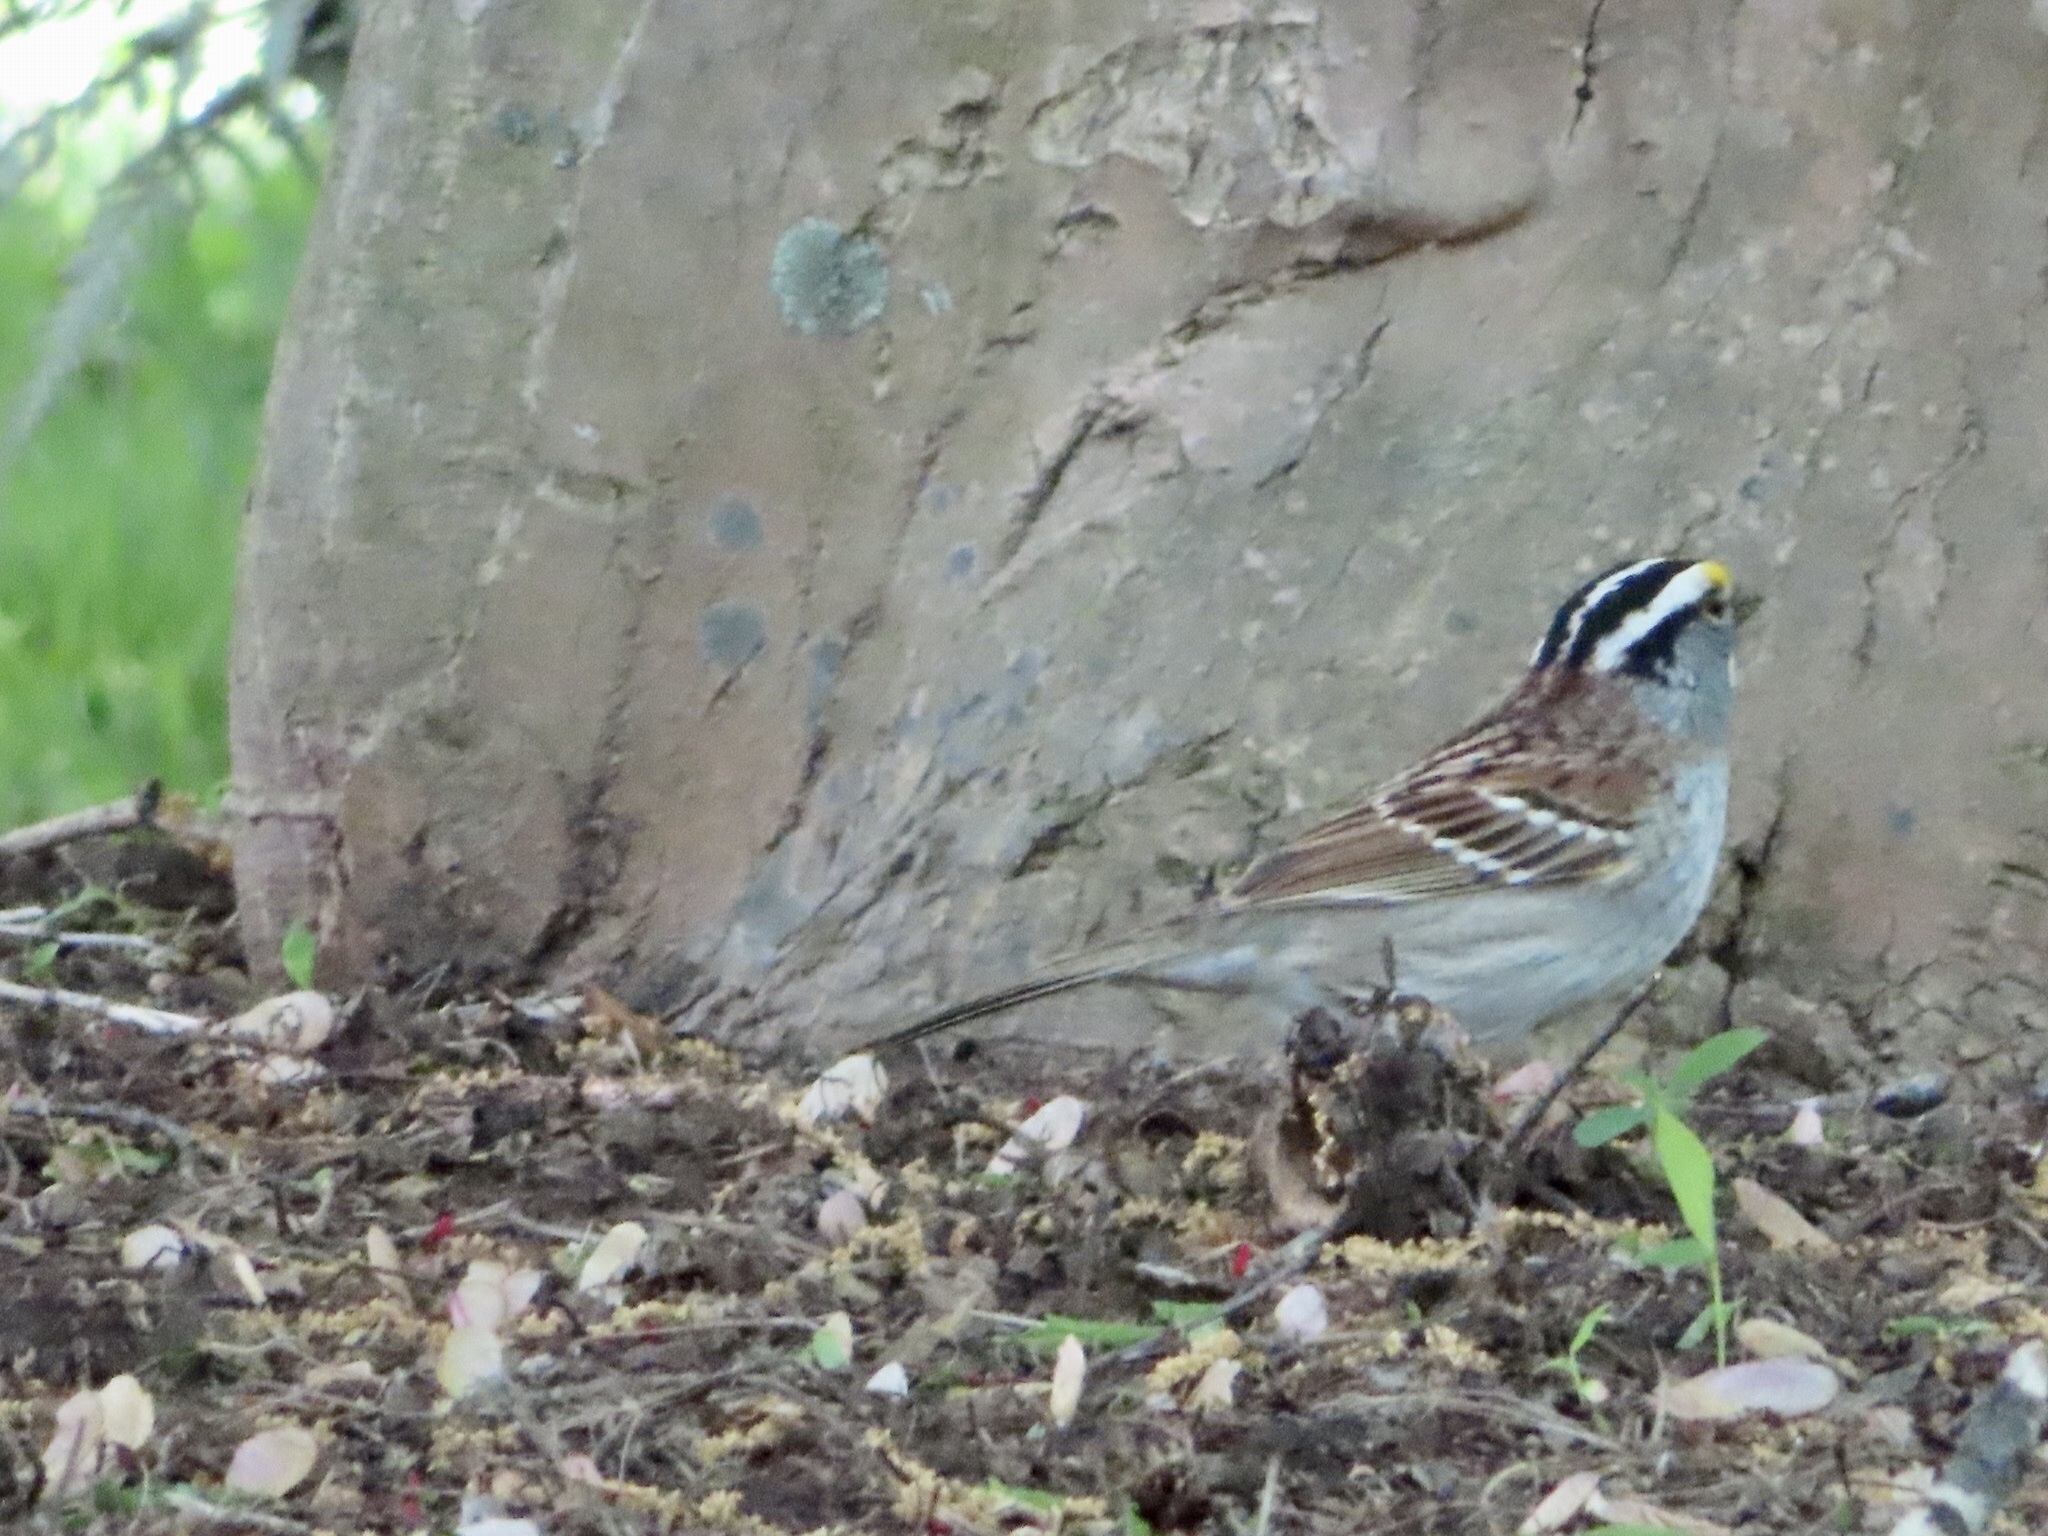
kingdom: Animalia
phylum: Chordata
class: Aves
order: Passeriformes
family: Passerellidae
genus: Zonotrichia
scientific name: Zonotrichia albicollis
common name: White-throated sparrow
